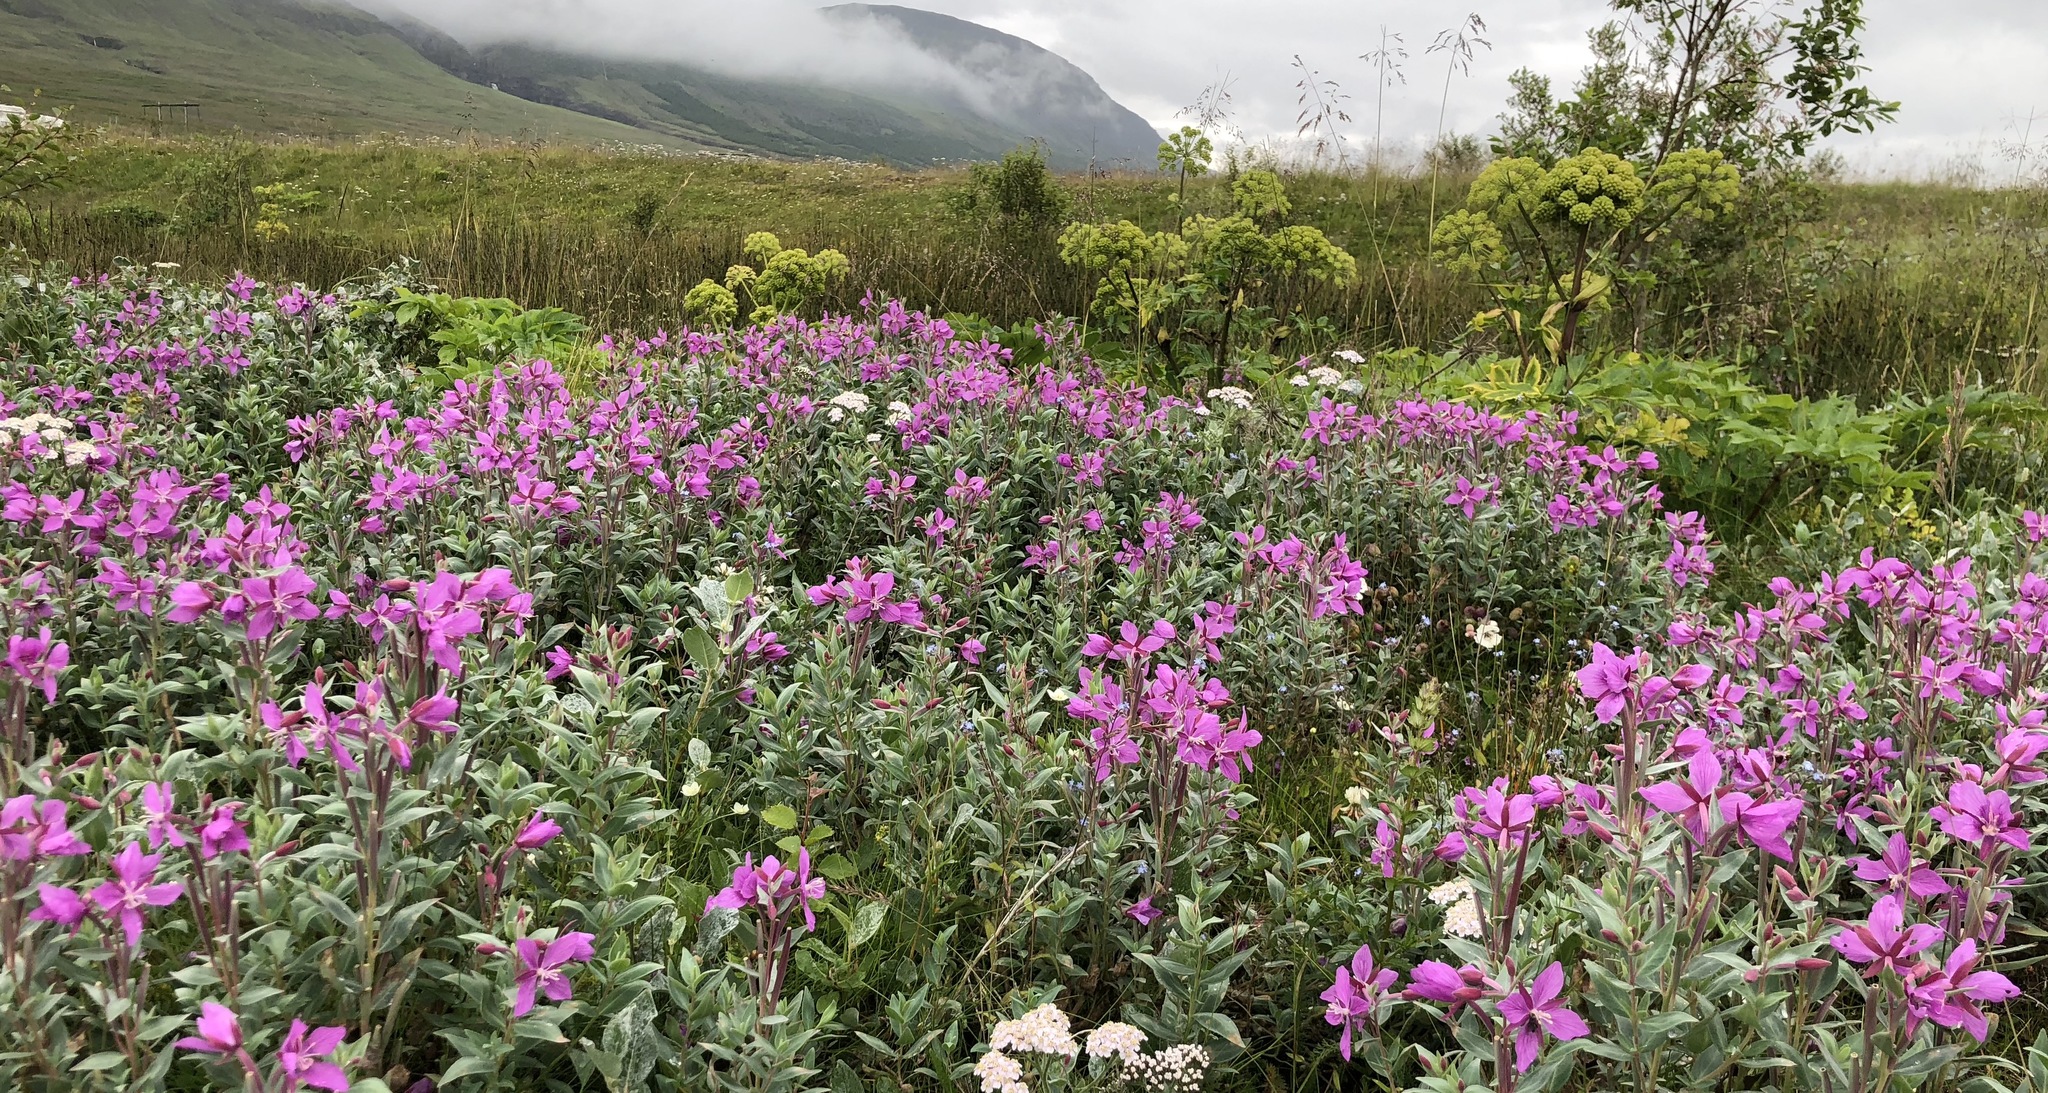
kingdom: Plantae
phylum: Tracheophyta
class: Magnoliopsida
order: Myrtales
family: Onagraceae
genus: Chamaenerion
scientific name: Chamaenerion latifolium
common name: Dwarf fireweed
